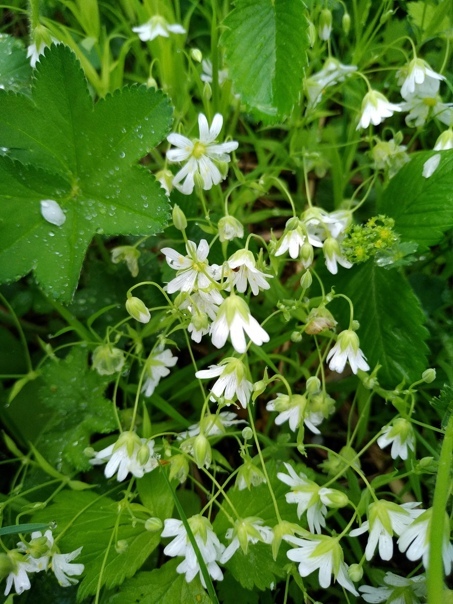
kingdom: Plantae
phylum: Tracheophyta
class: Magnoliopsida
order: Caryophyllales
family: Caryophyllaceae
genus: Rabelera
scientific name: Rabelera holostea
